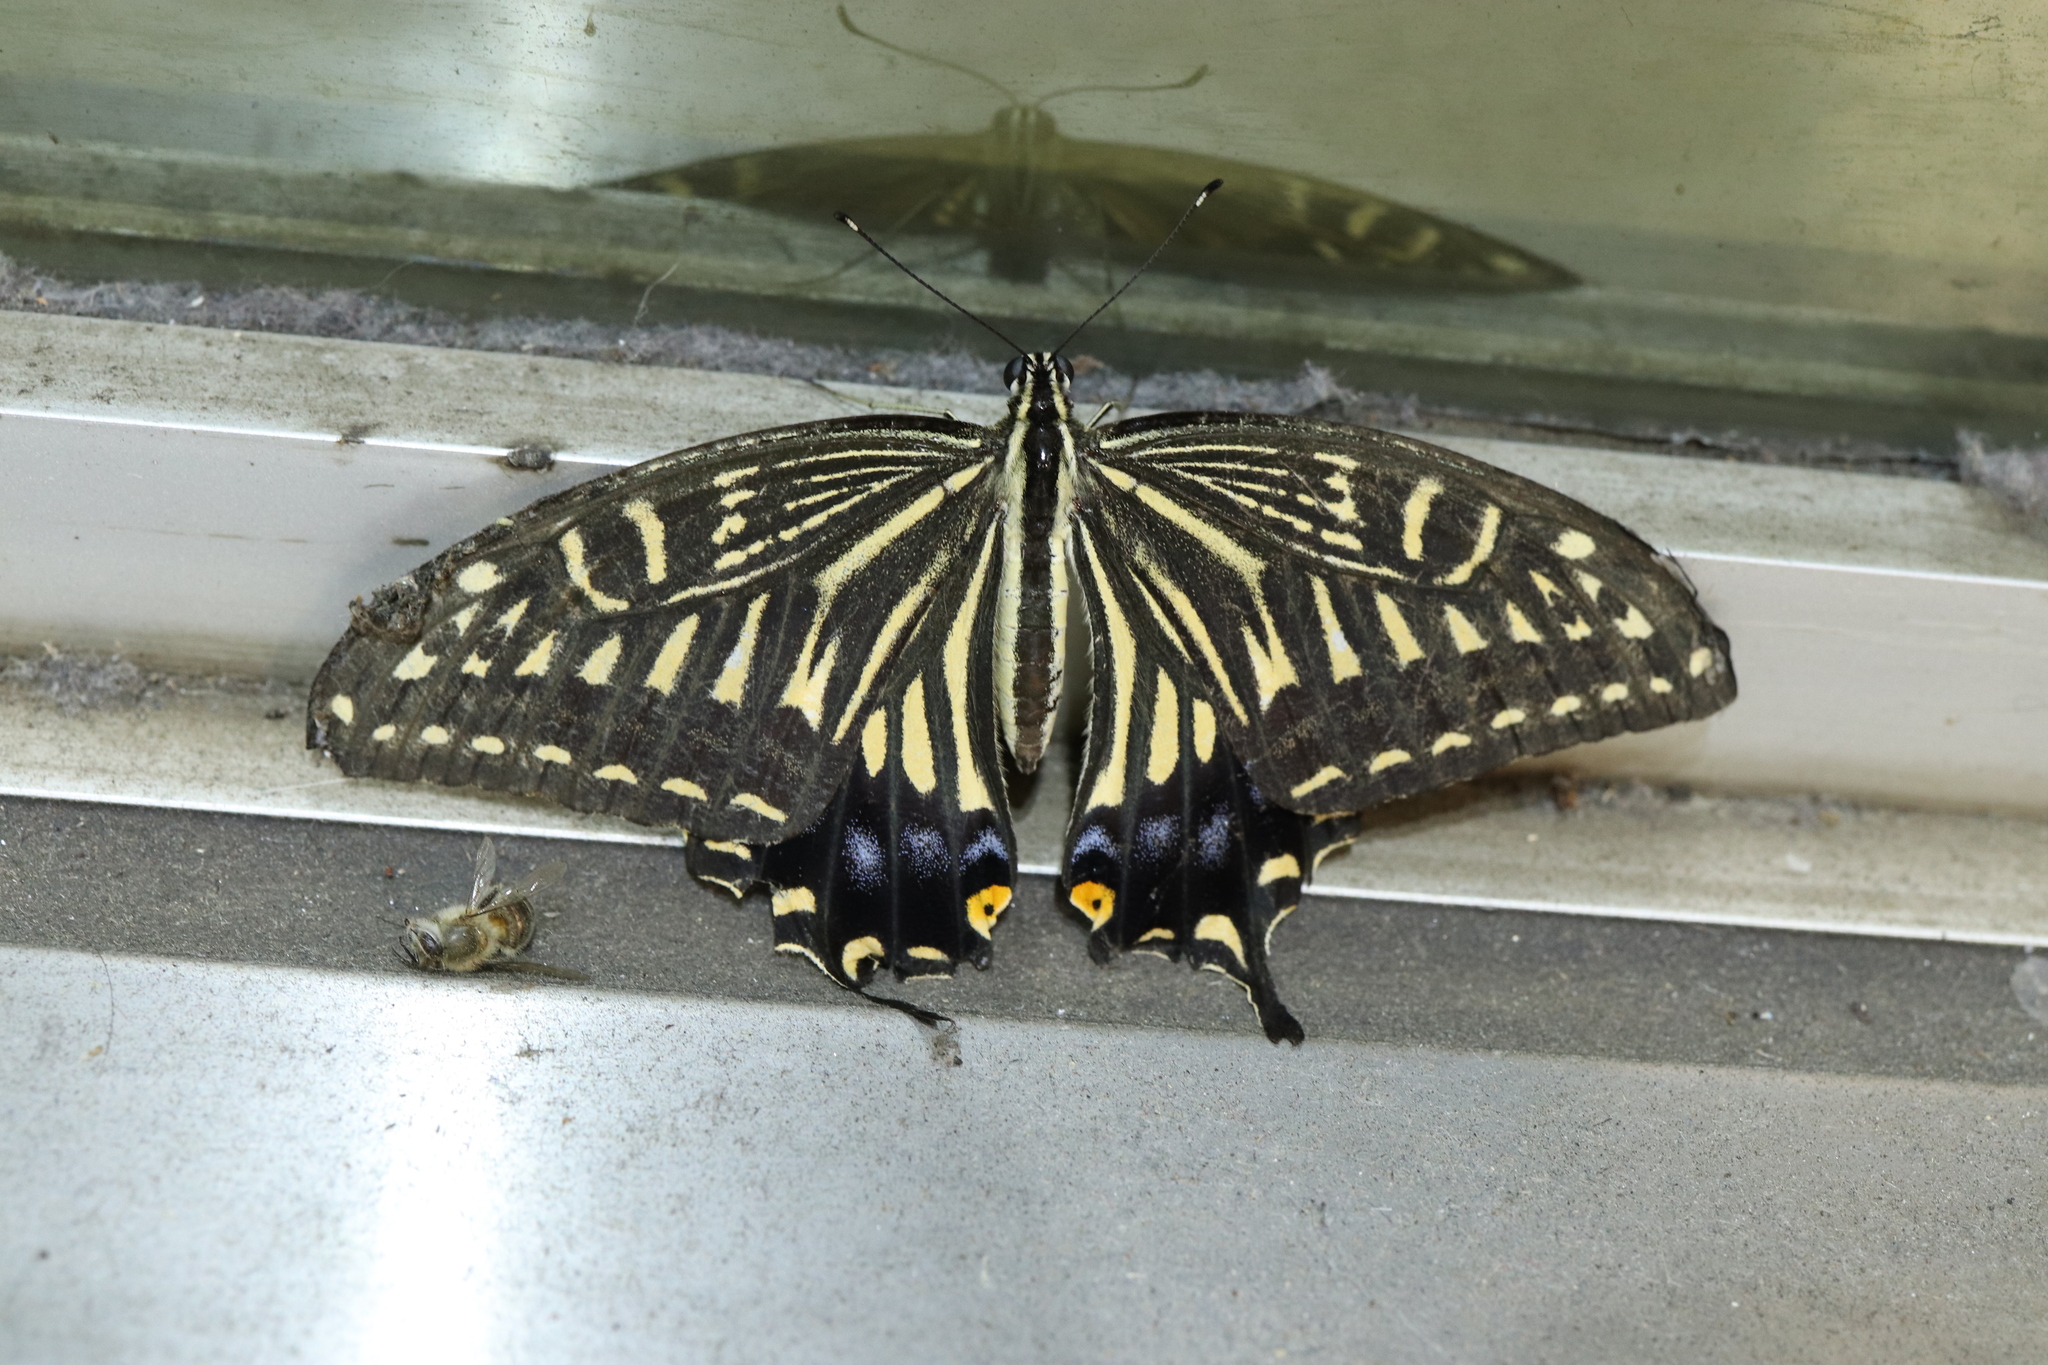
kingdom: Animalia
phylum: Arthropoda
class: Insecta
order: Lepidoptera
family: Papilionidae
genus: Papilio
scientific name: Papilio xuthus
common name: Asian swallowtail
